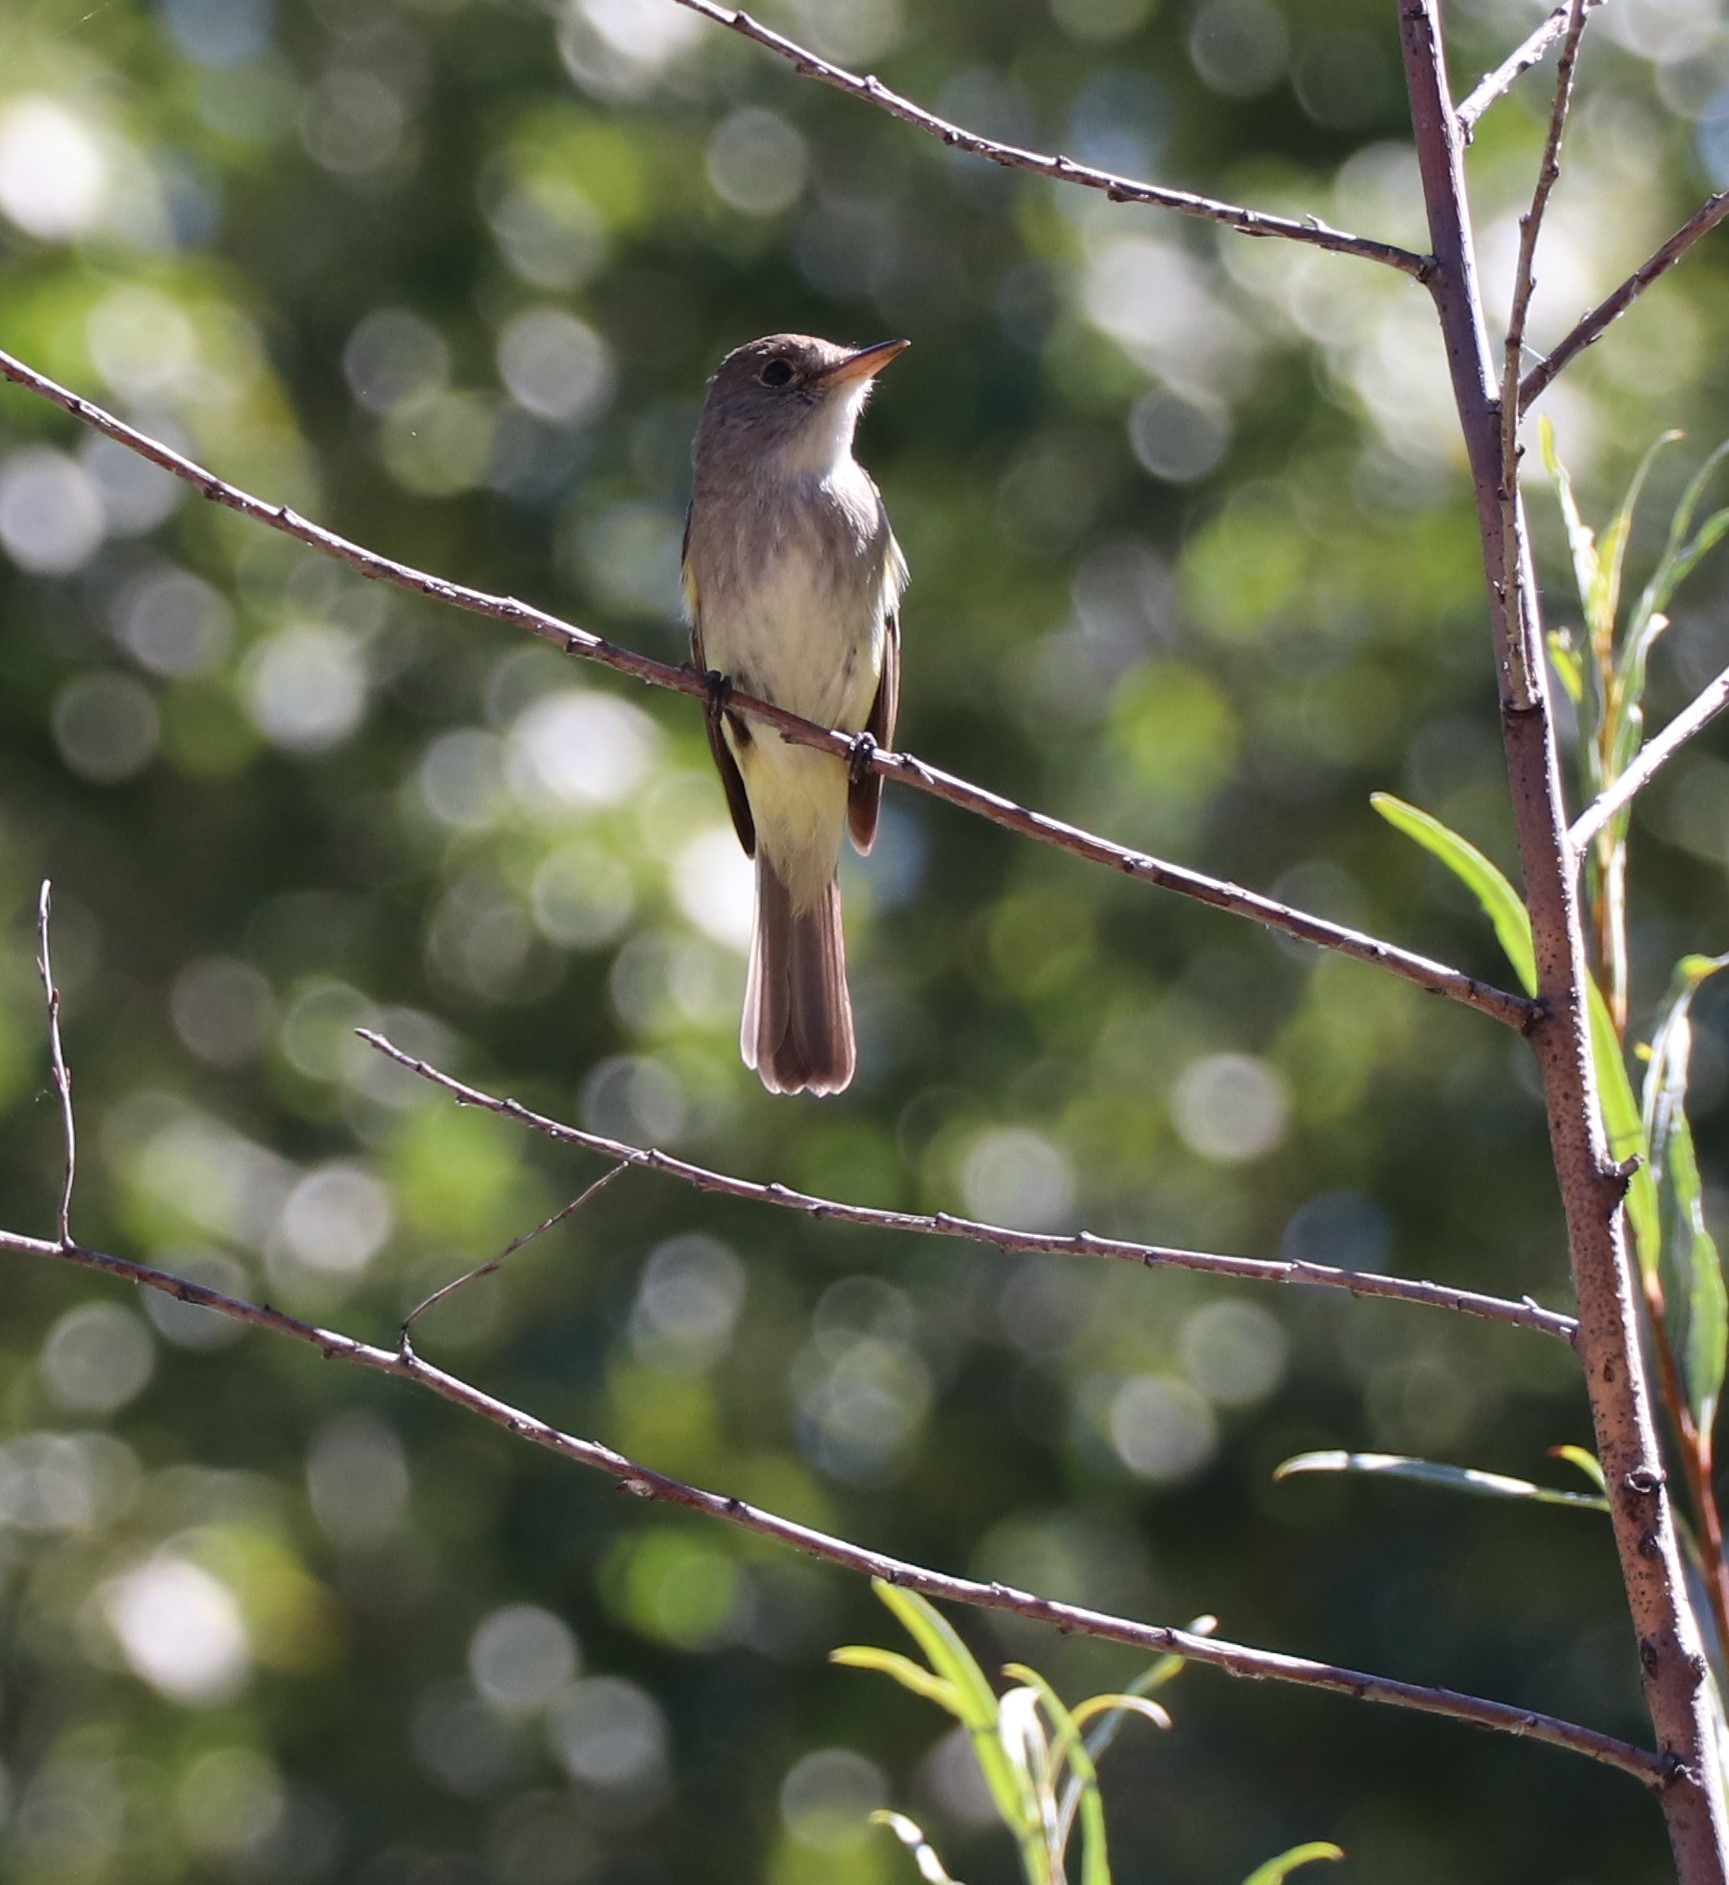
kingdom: Animalia
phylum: Chordata
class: Aves
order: Passeriformes
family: Tyrannidae
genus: Contopus
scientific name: Contopus sordidulus
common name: Western wood-pewee
